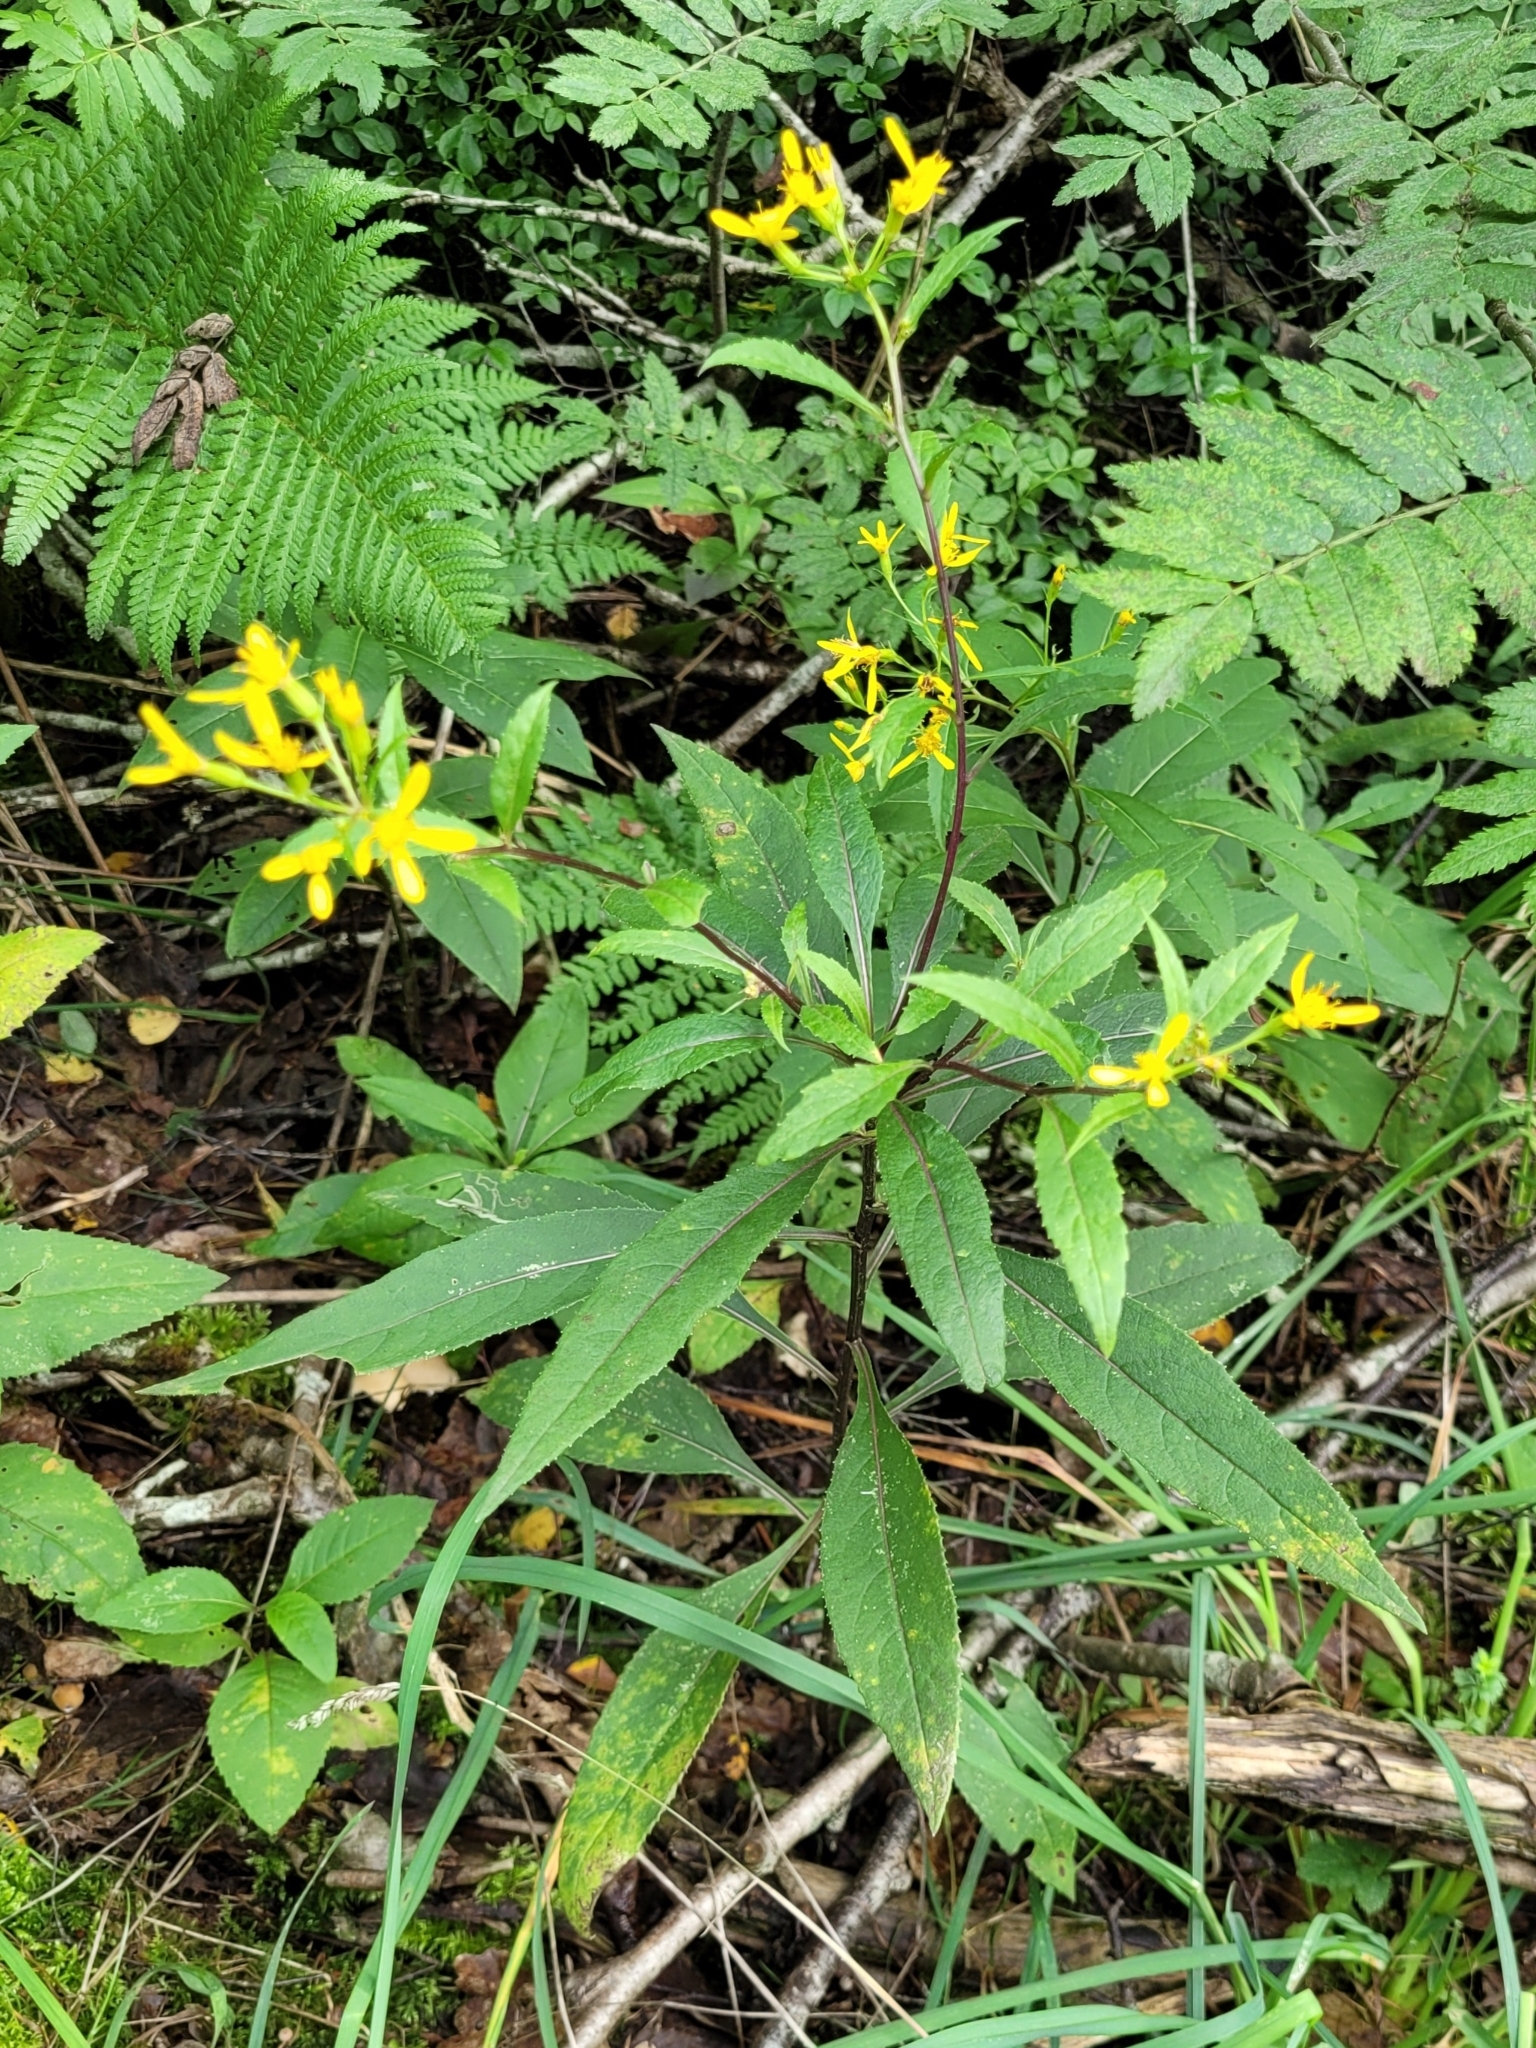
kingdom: Plantae
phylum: Tracheophyta
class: Magnoliopsida
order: Asterales
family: Asteraceae
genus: Senecio
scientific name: Senecio ovatus
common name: Wood ragwort
